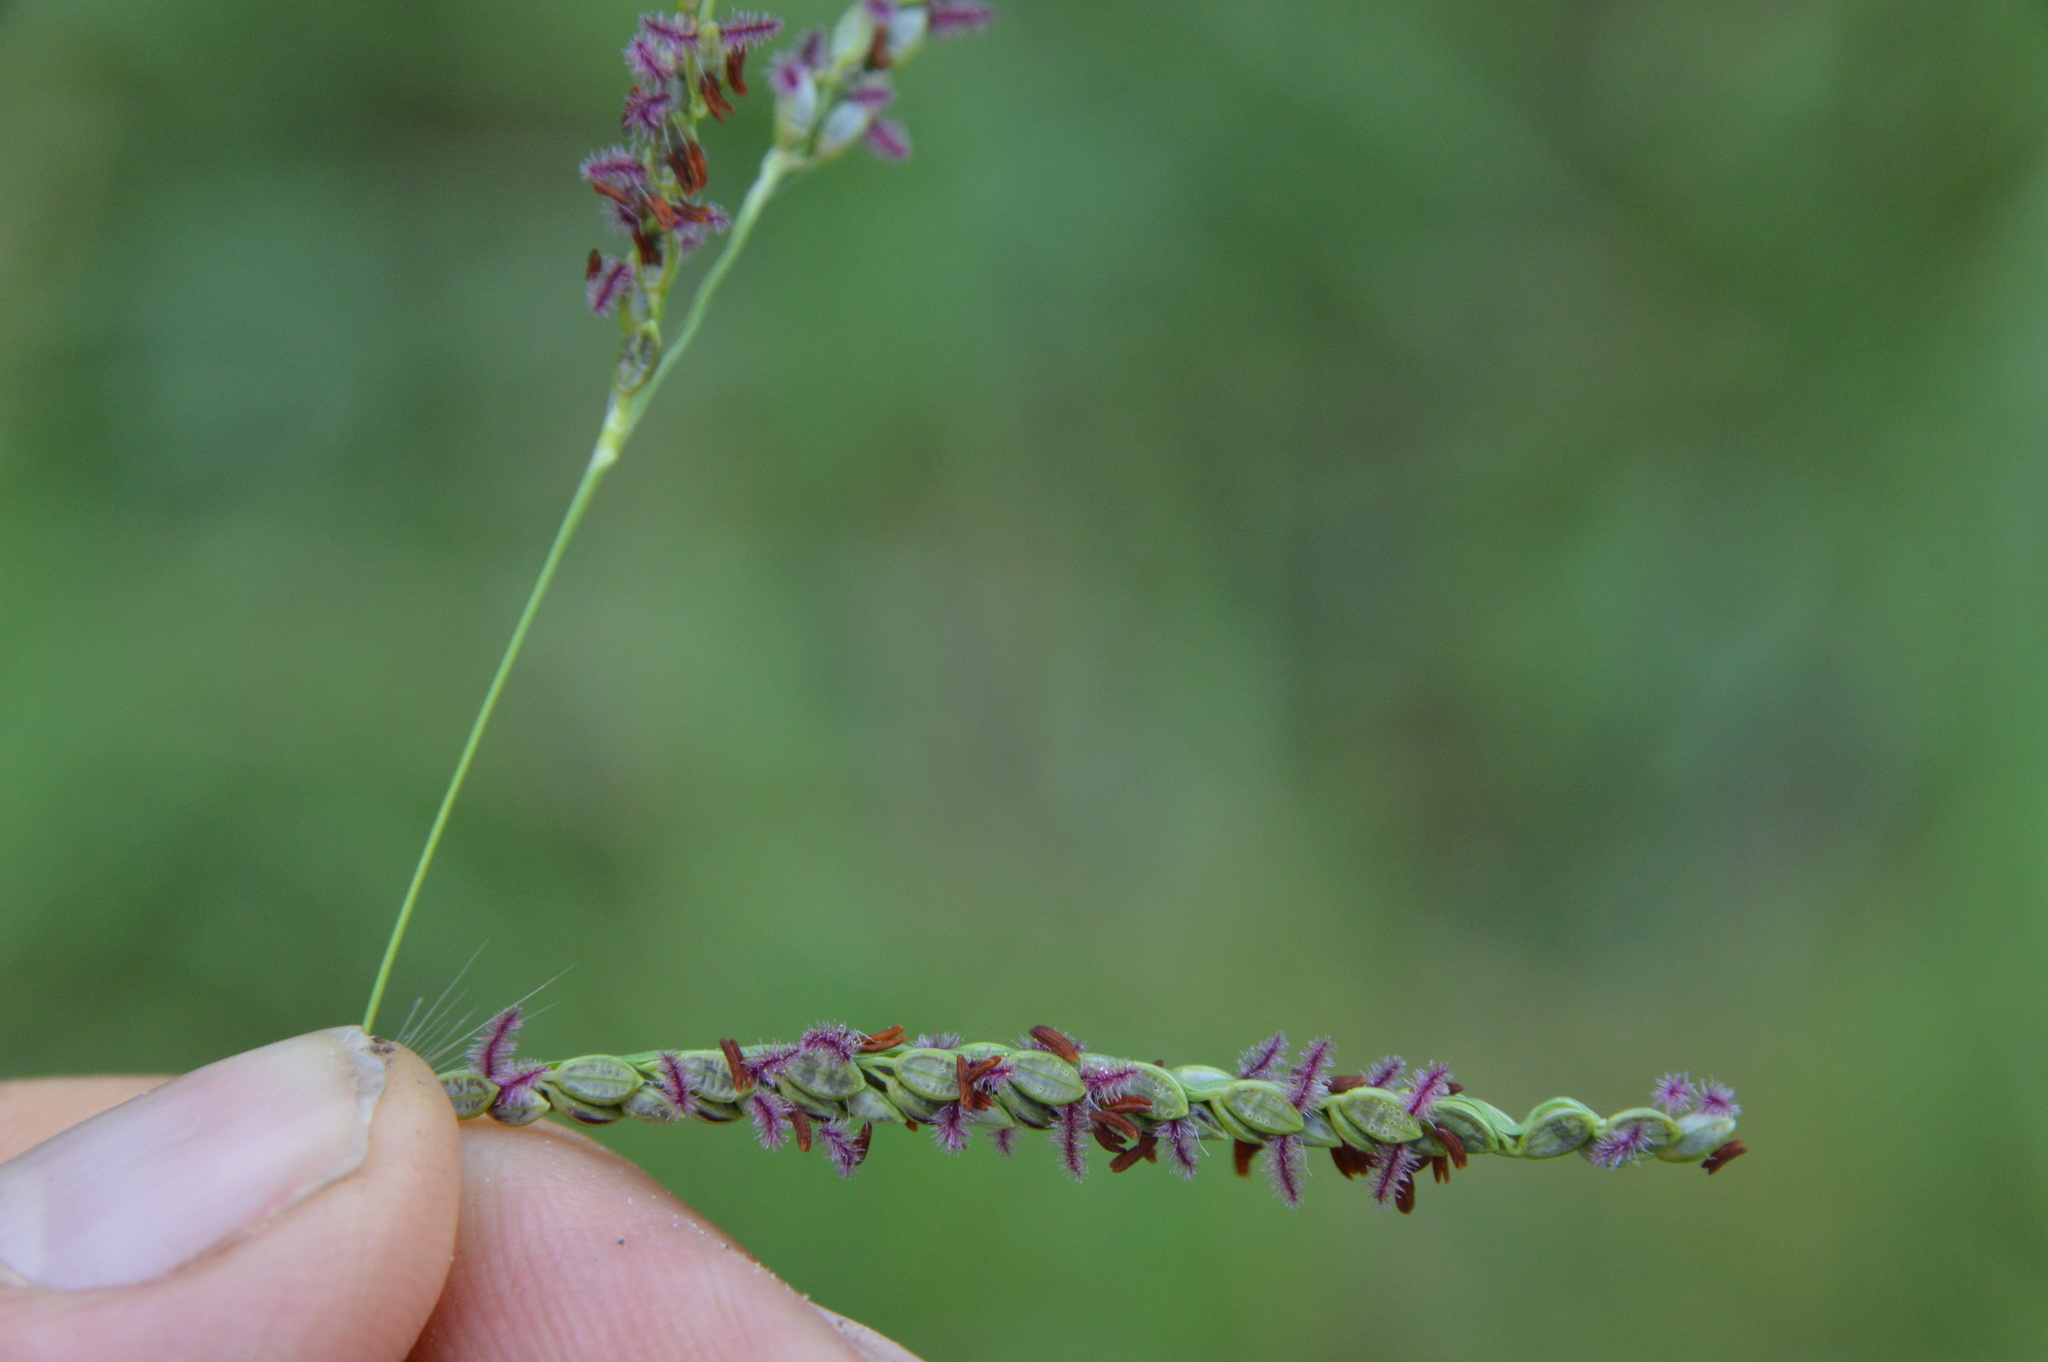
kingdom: Plantae
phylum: Tracheophyta
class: Liliopsida
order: Poales
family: Poaceae
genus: Paspalum
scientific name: Paspalum plicatulum
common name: Top paspalum
